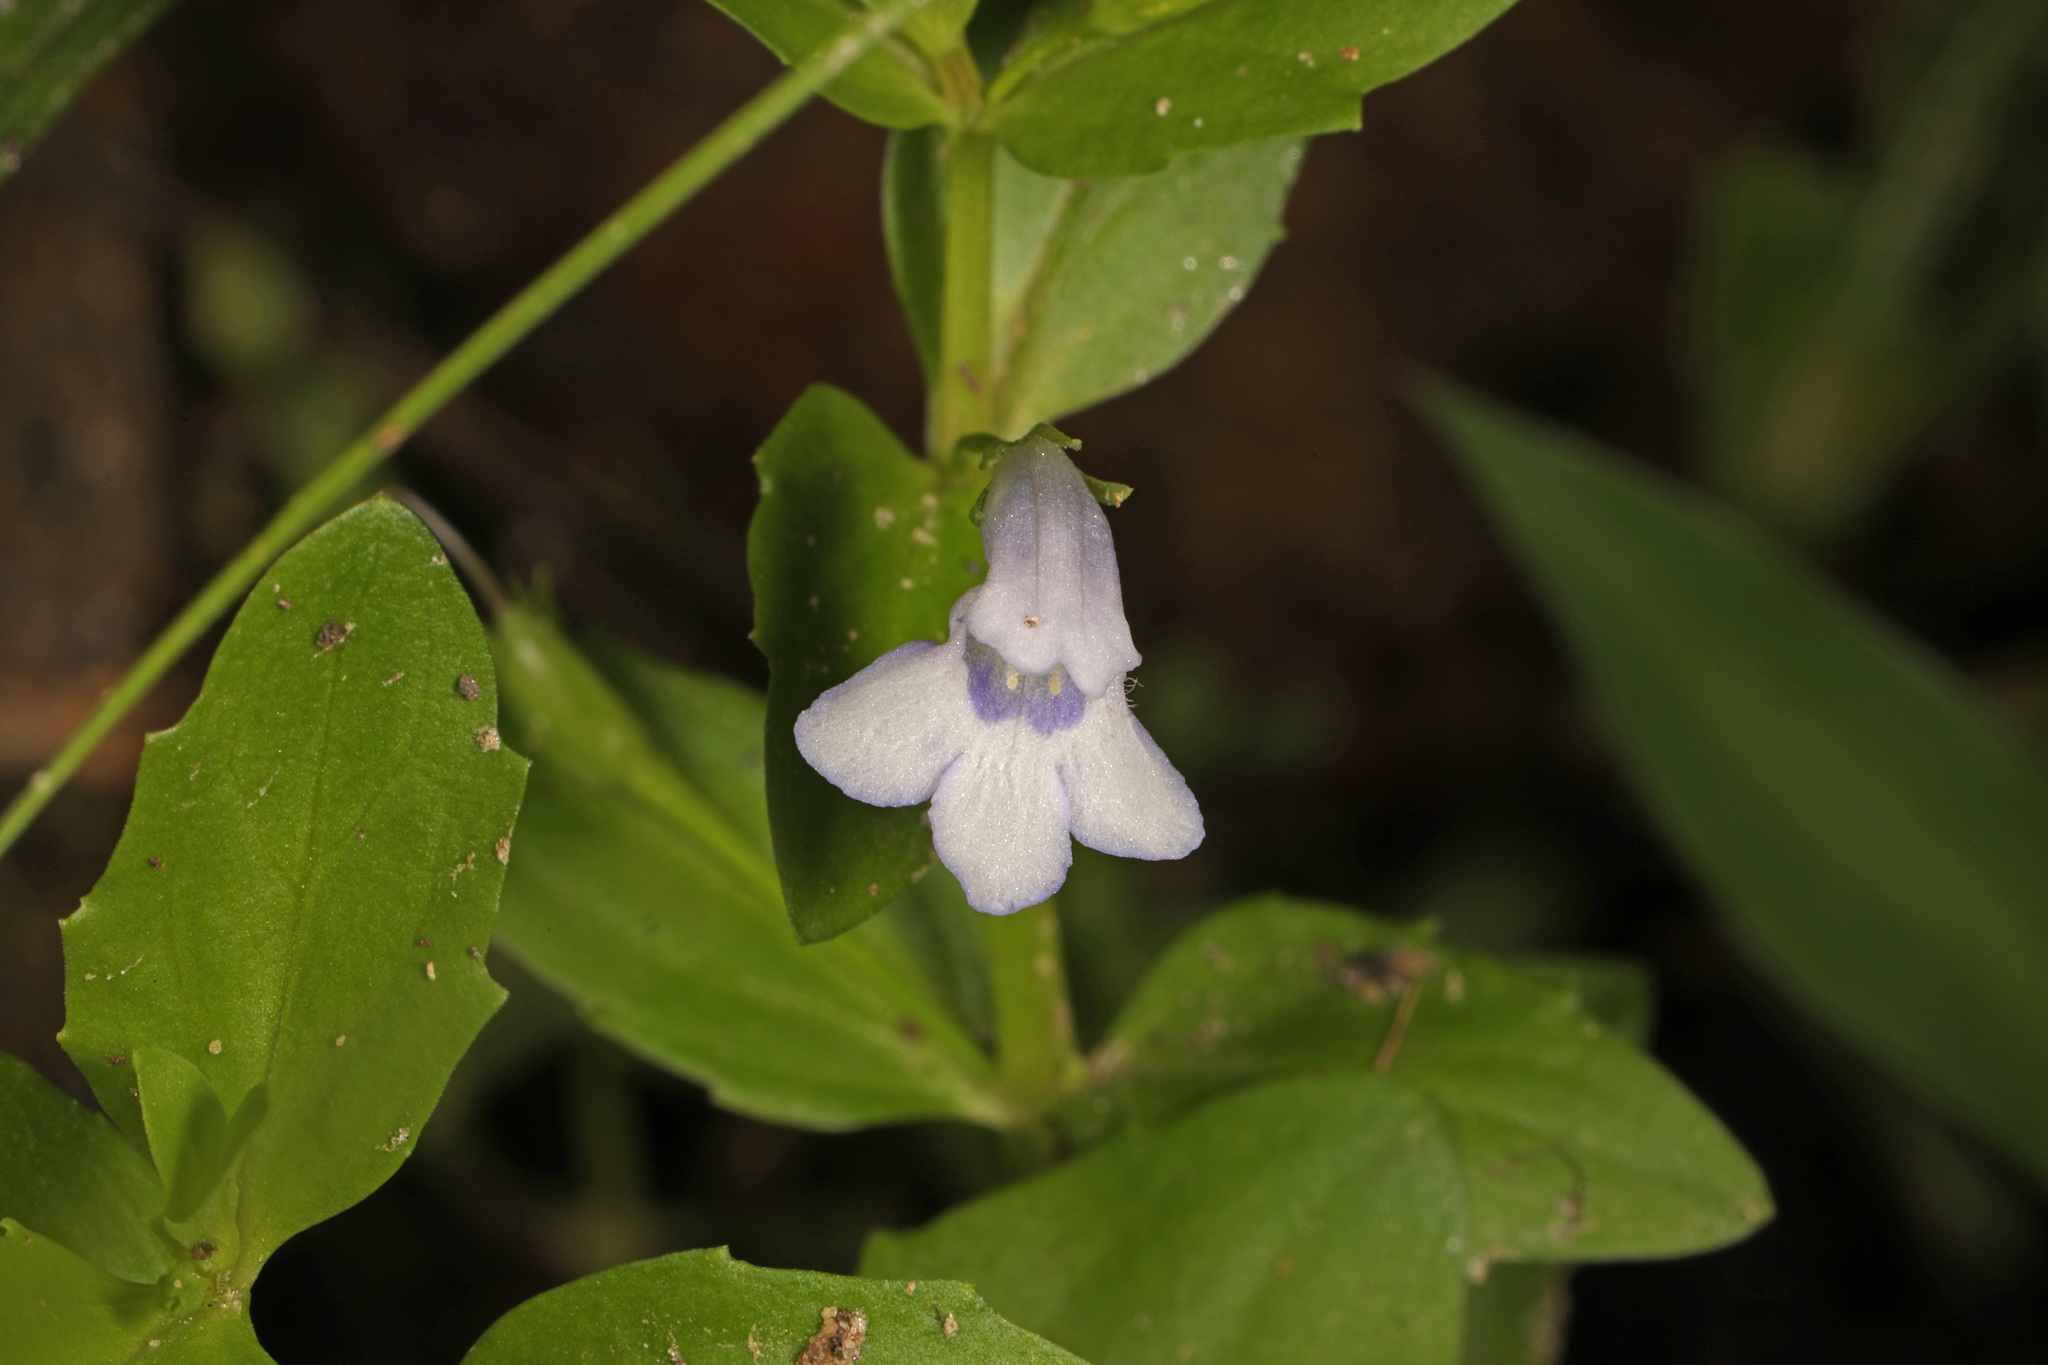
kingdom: Plantae
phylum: Tracheophyta
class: Magnoliopsida
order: Lamiales
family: Linderniaceae
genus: Lindernia
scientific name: Lindernia dubia
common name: Annual false pimpernel
